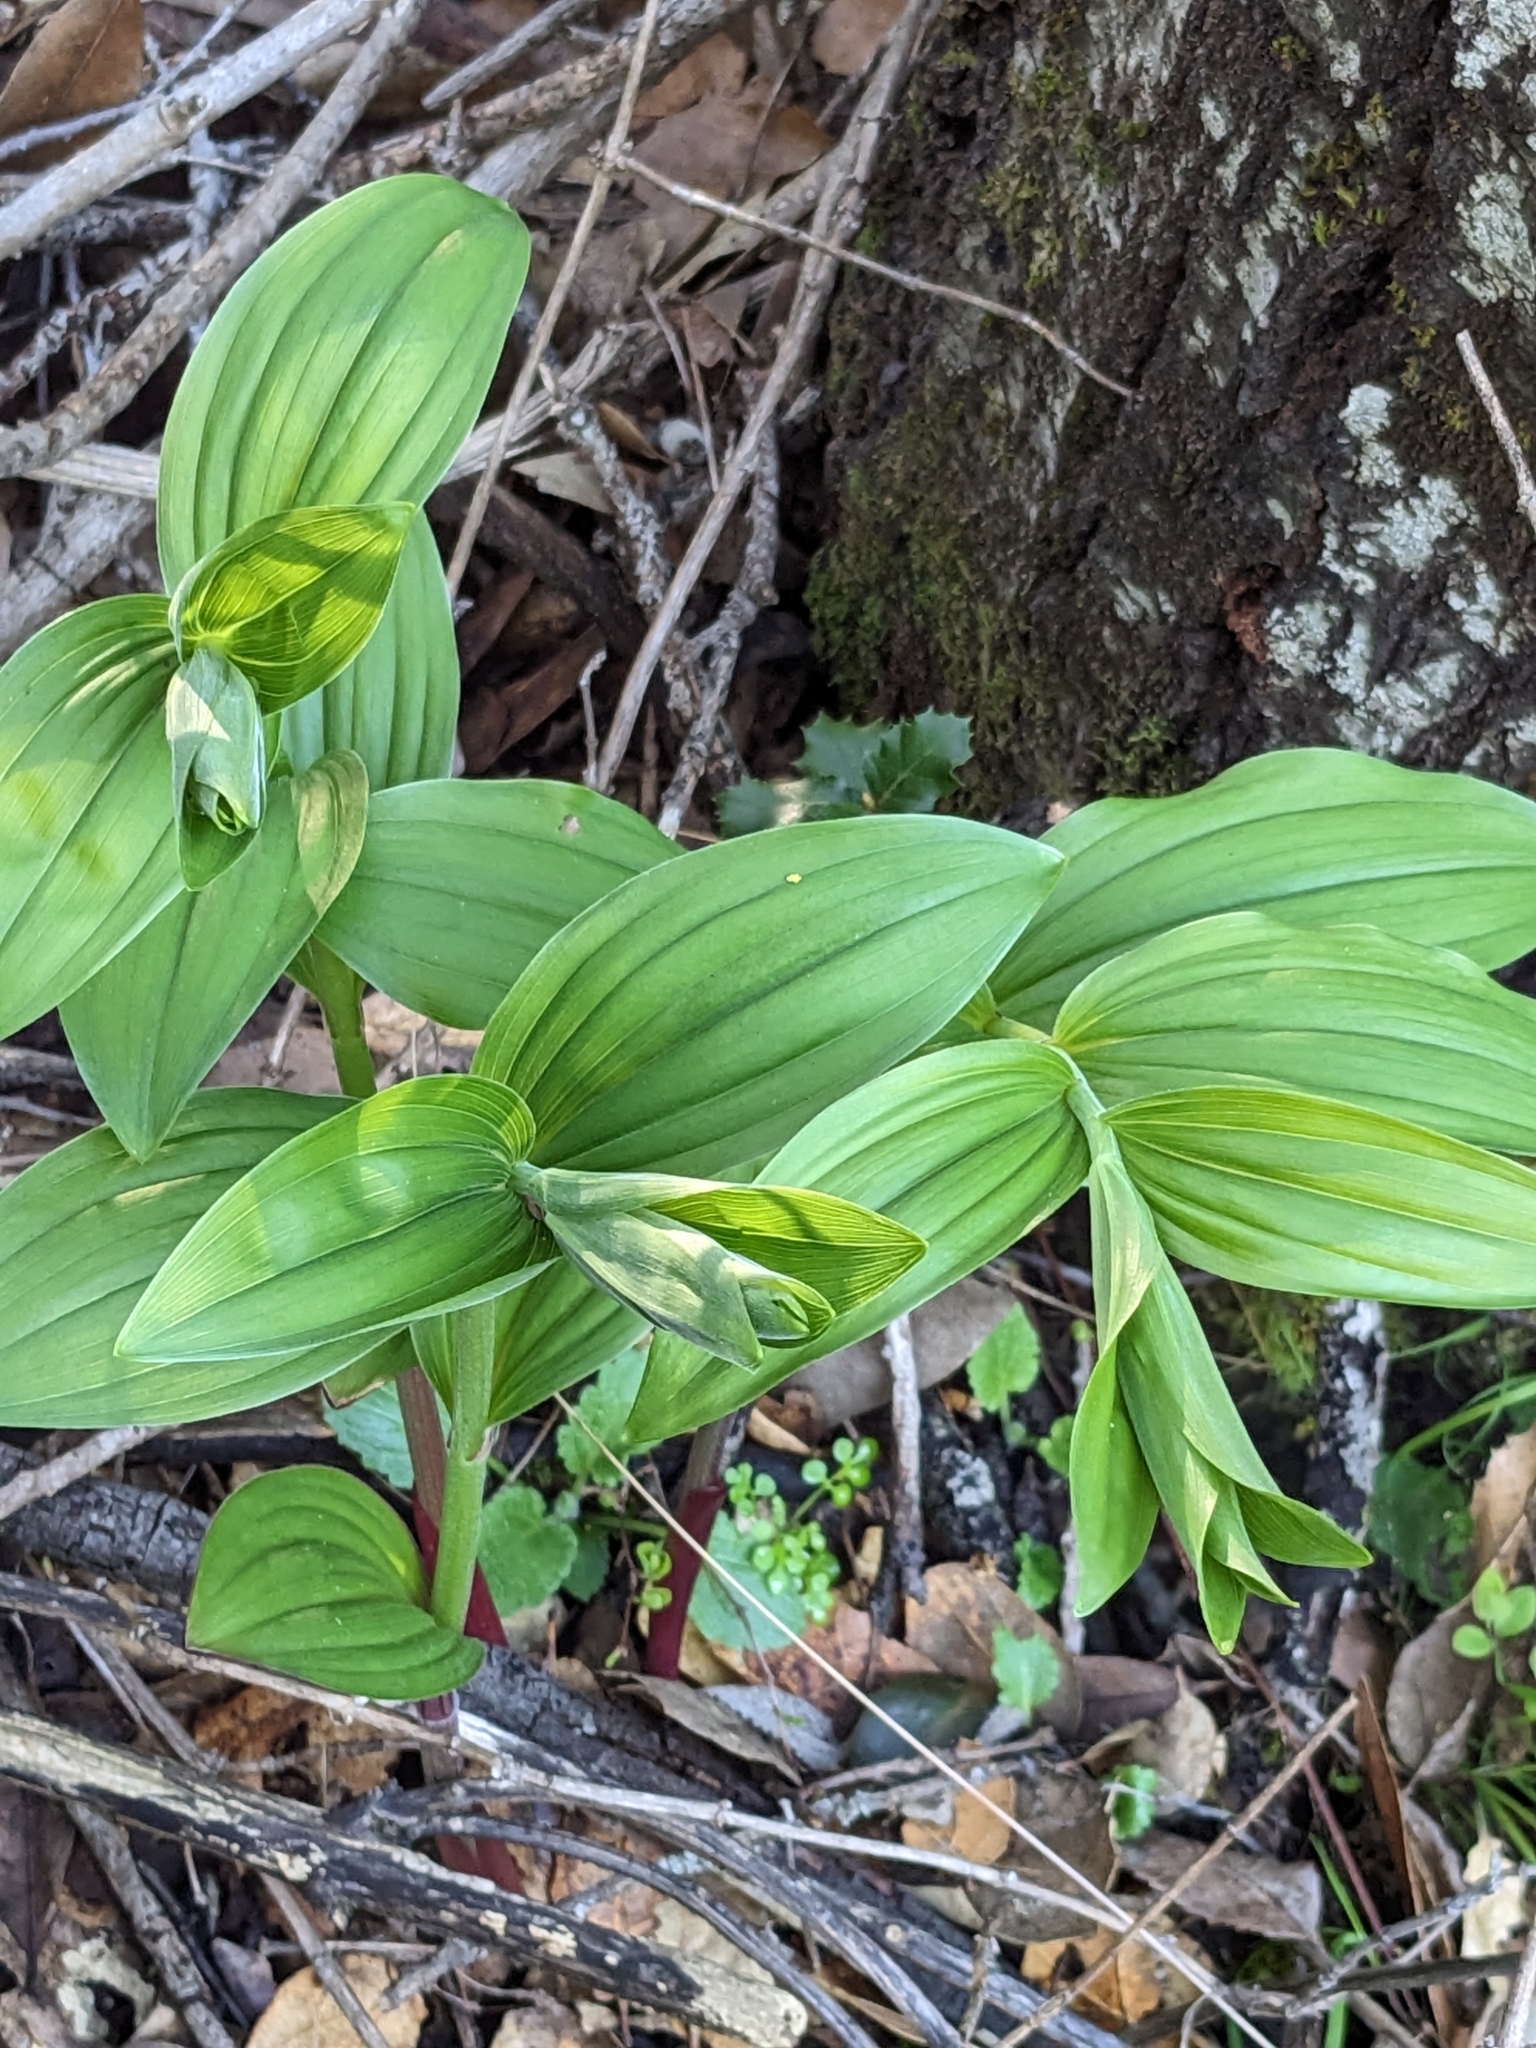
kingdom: Plantae
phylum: Tracheophyta
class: Liliopsida
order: Asparagales
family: Asparagaceae
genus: Maianthemum
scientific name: Maianthemum racemosum
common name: False spikenard
